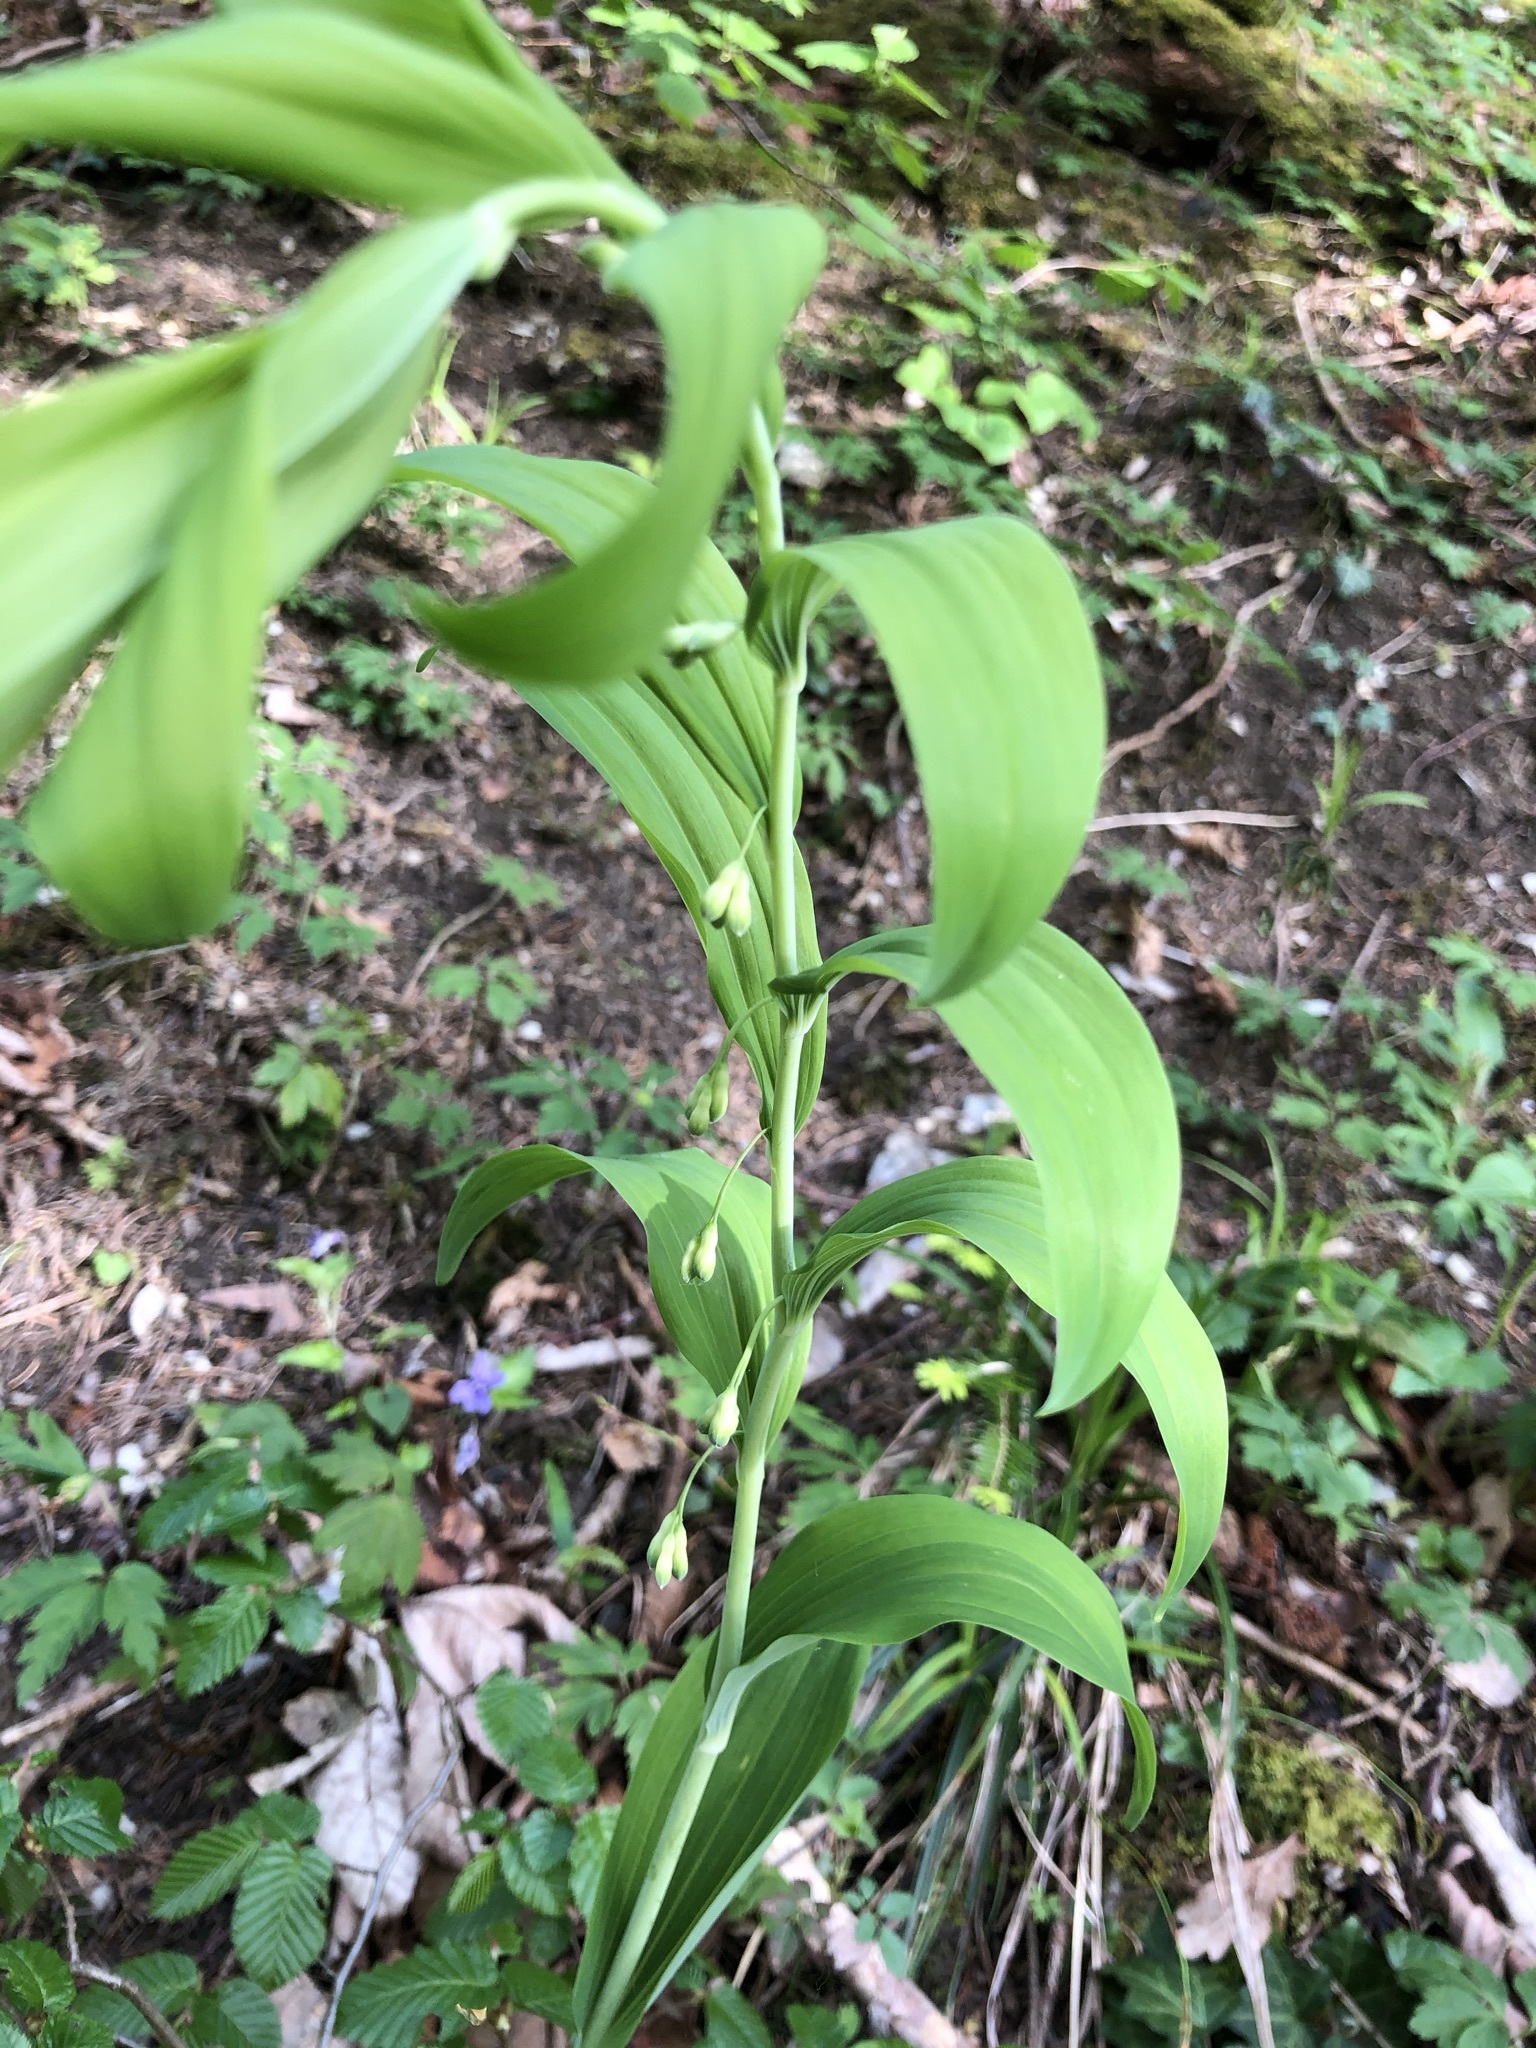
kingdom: Plantae
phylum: Tracheophyta
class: Liliopsida
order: Asparagales
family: Asparagaceae
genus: Polygonatum
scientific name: Polygonatum multiflorum
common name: Solomon's-seal
